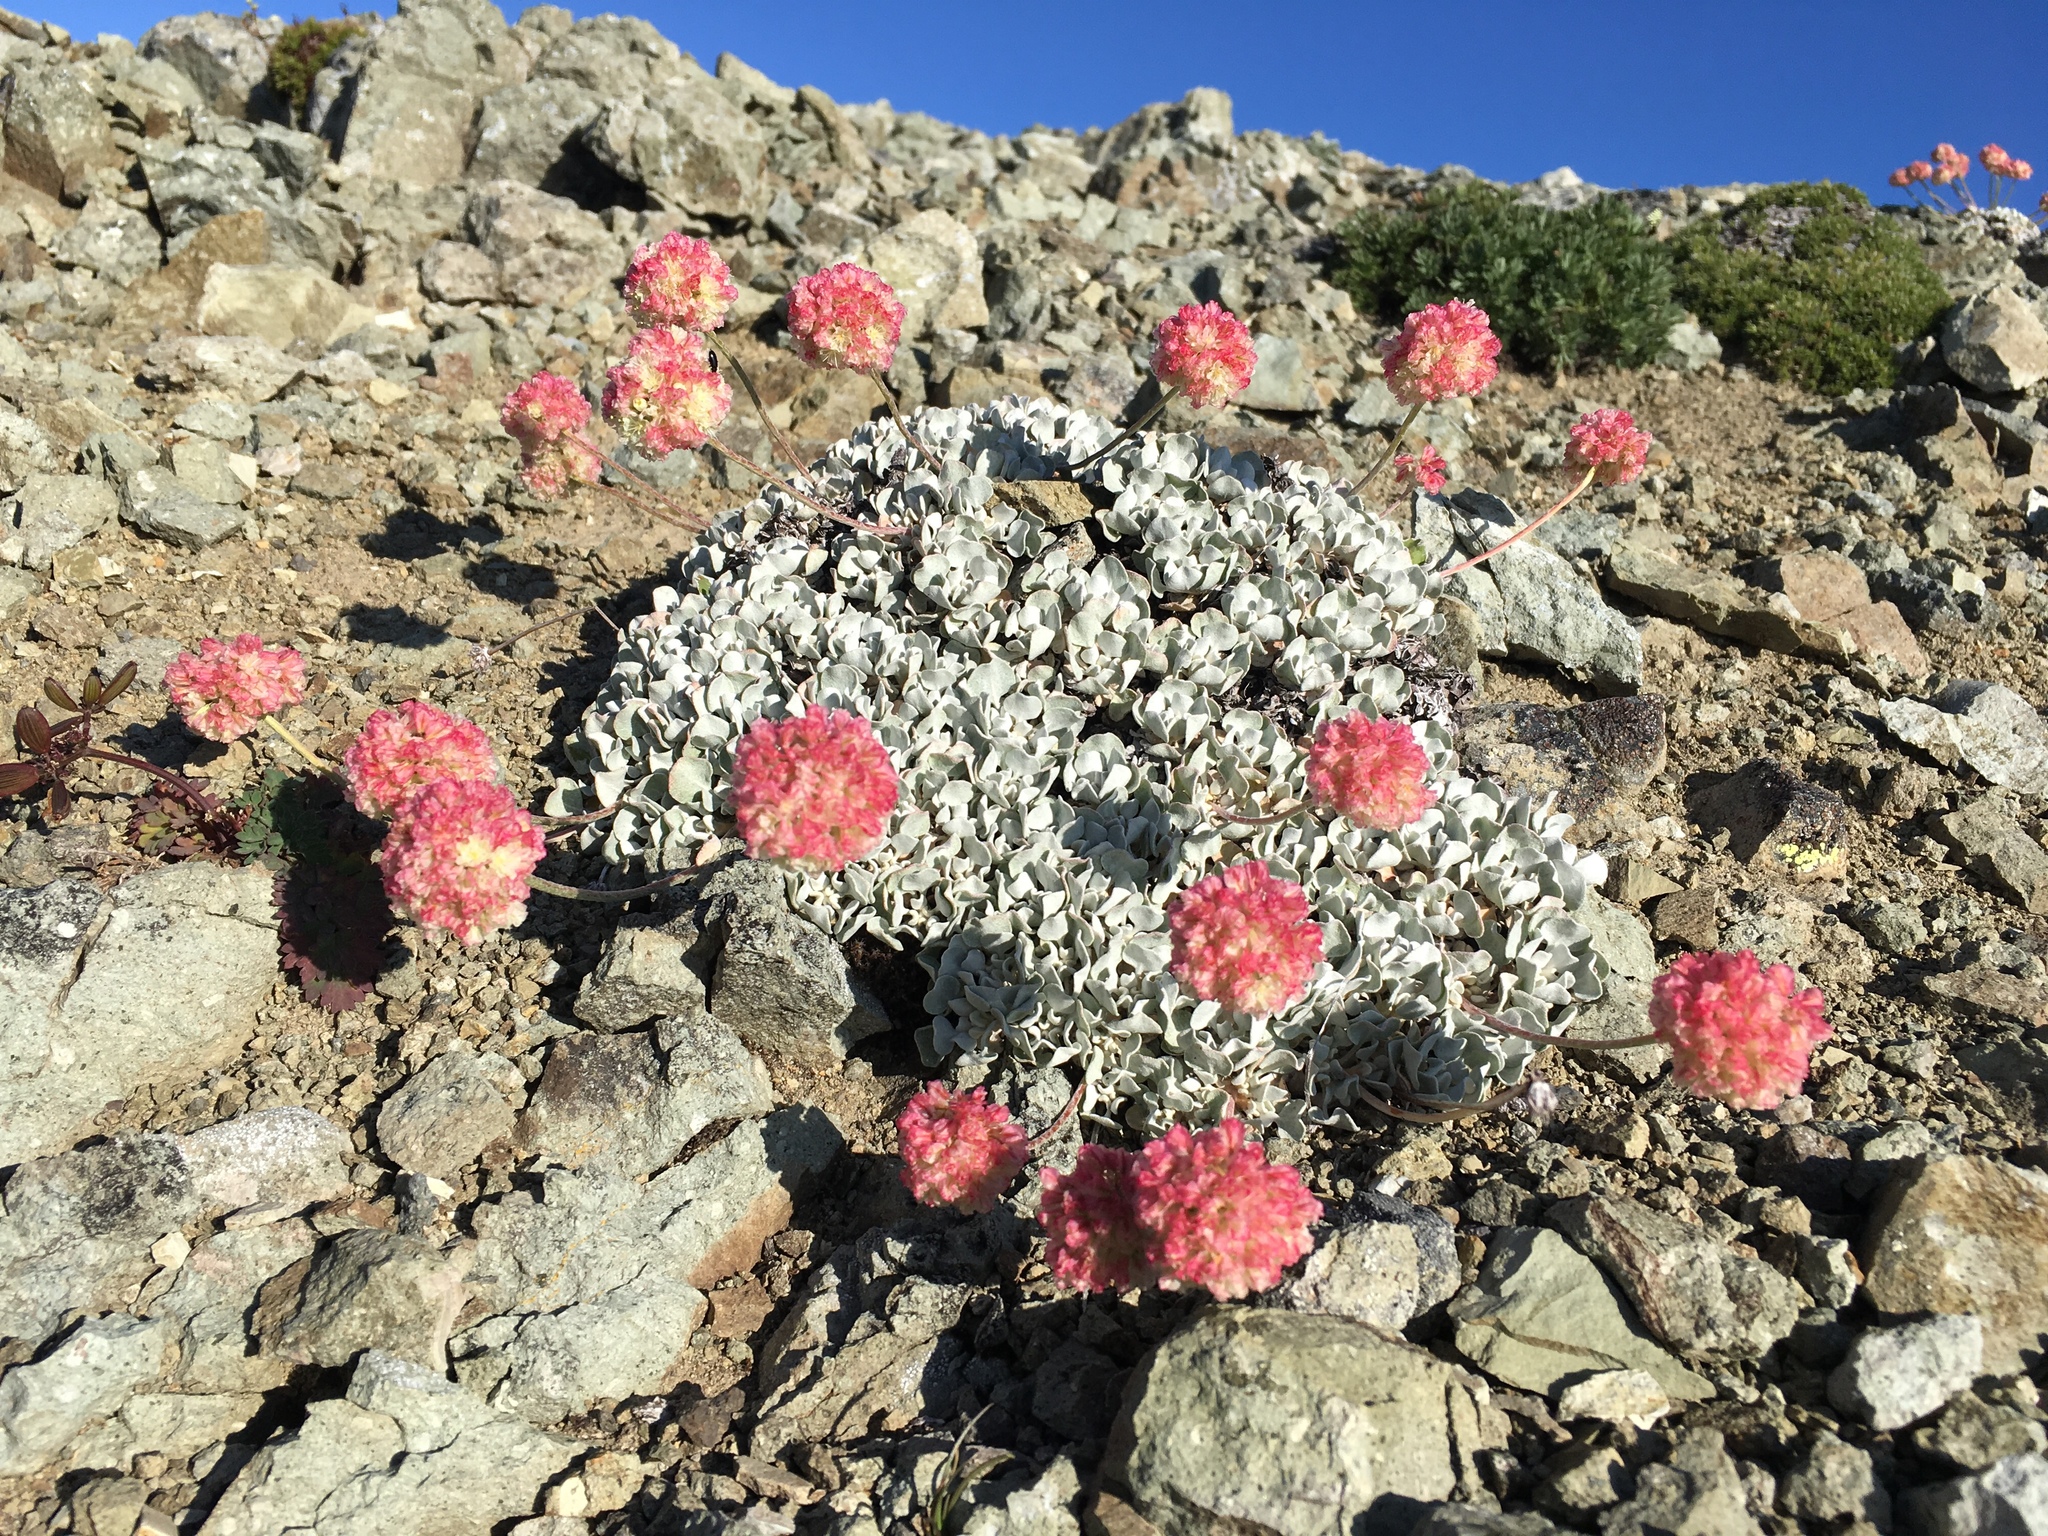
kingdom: Plantae
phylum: Tracheophyta
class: Magnoliopsida
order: Caryophyllales
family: Polygonaceae
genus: Eriogonum
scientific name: Eriogonum ovalifolium
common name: Cushion buckwheat
